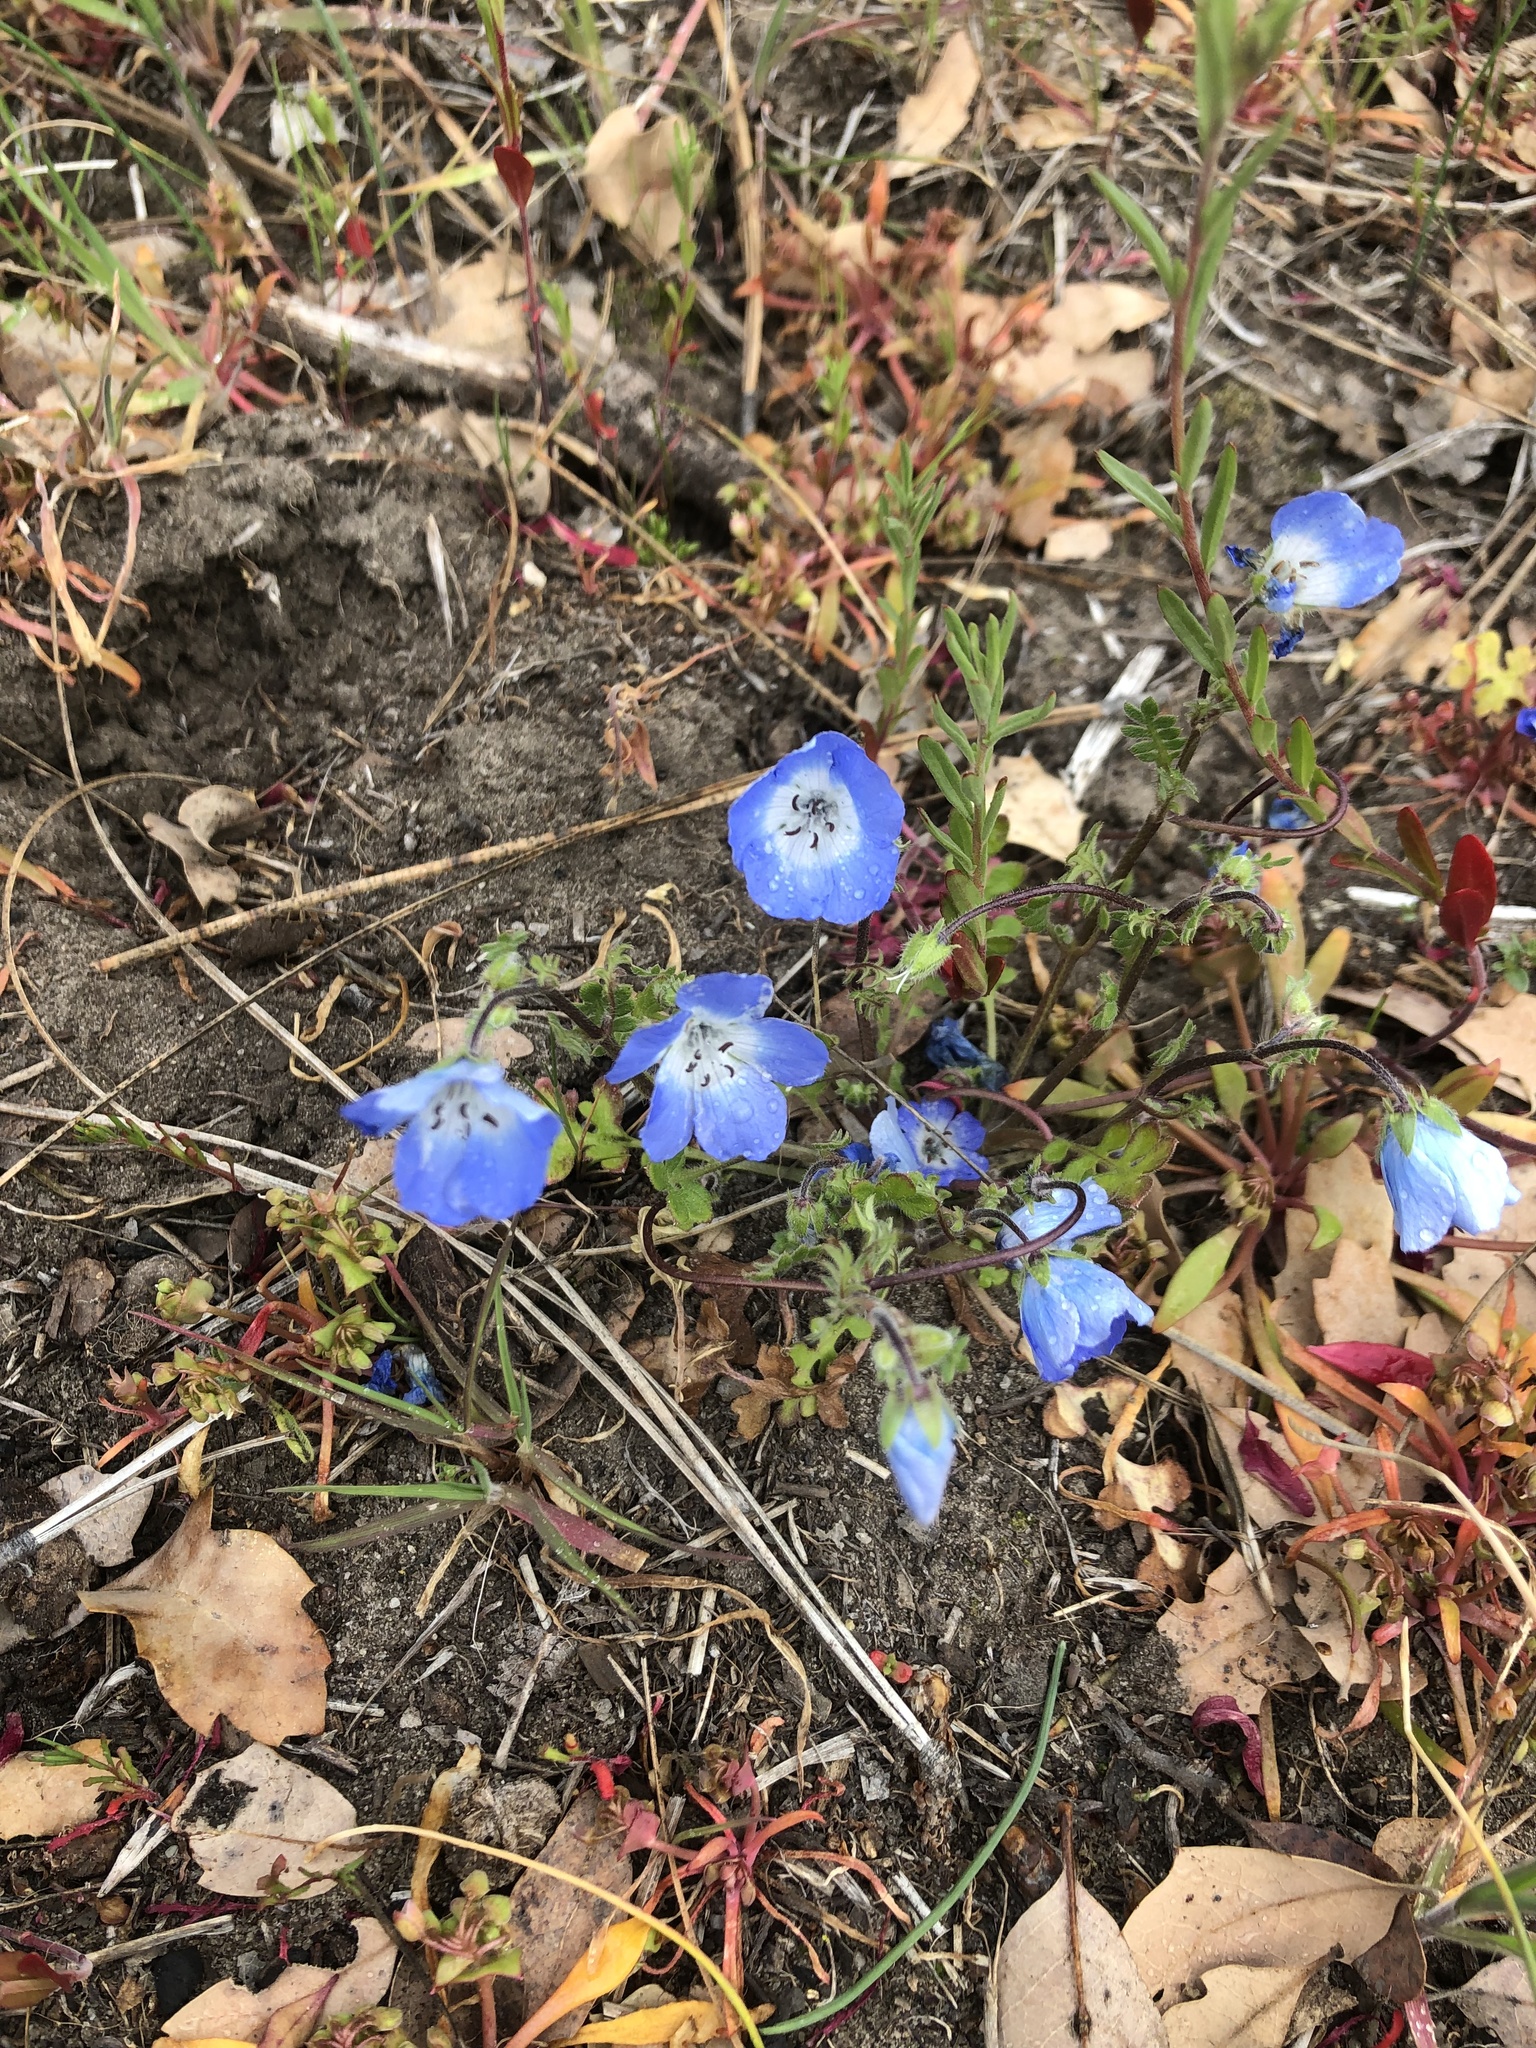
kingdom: Plantae
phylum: Tracheophyta
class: Magnoliopsida
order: Boraginales
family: Hydrophyllaceae
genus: Nemophila
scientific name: Nemophila menziesii
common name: Baby's-blue-eyes
